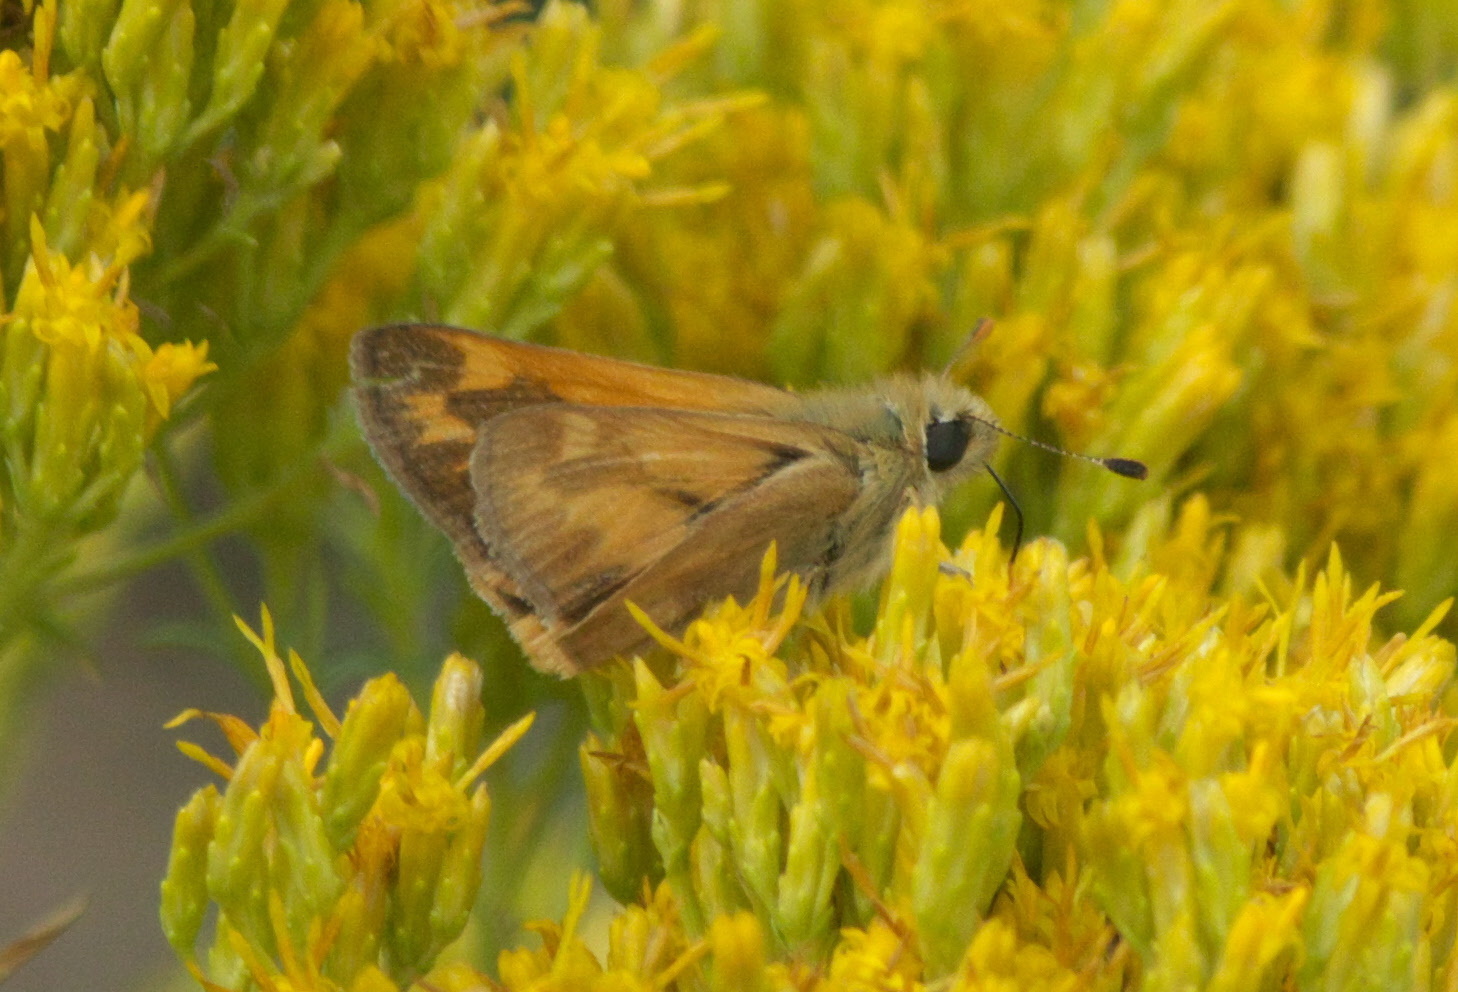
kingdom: Animalia
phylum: Arthropoda
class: Insecta
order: Lepidoptera
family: Hesperiidae
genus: Ochlodes
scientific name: Ochlodes sylvanoides
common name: Woodland skipper
